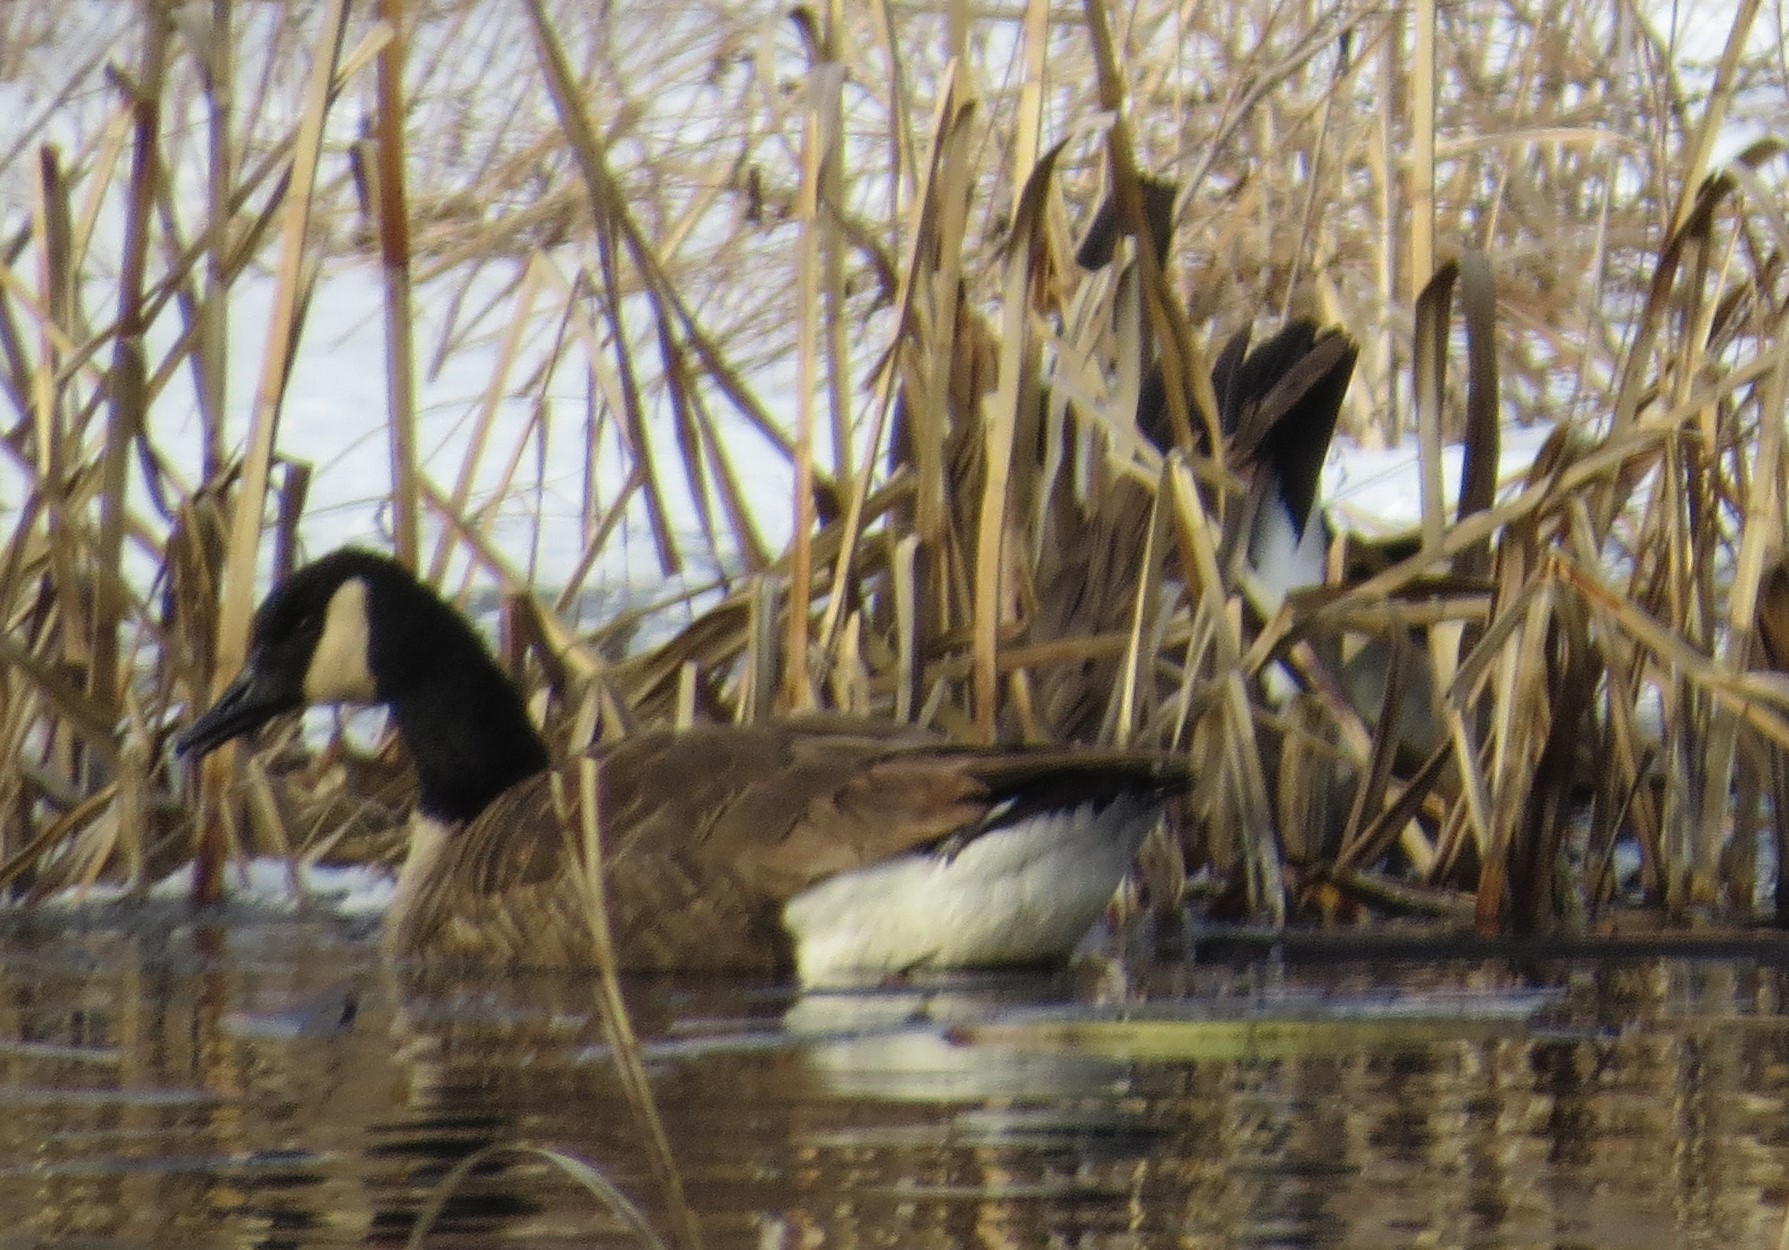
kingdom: Animalia
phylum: Chordata
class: Aves
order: Anseriformes
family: Anatidae
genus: Branta
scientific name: Branta canadensis
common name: Canada goose
